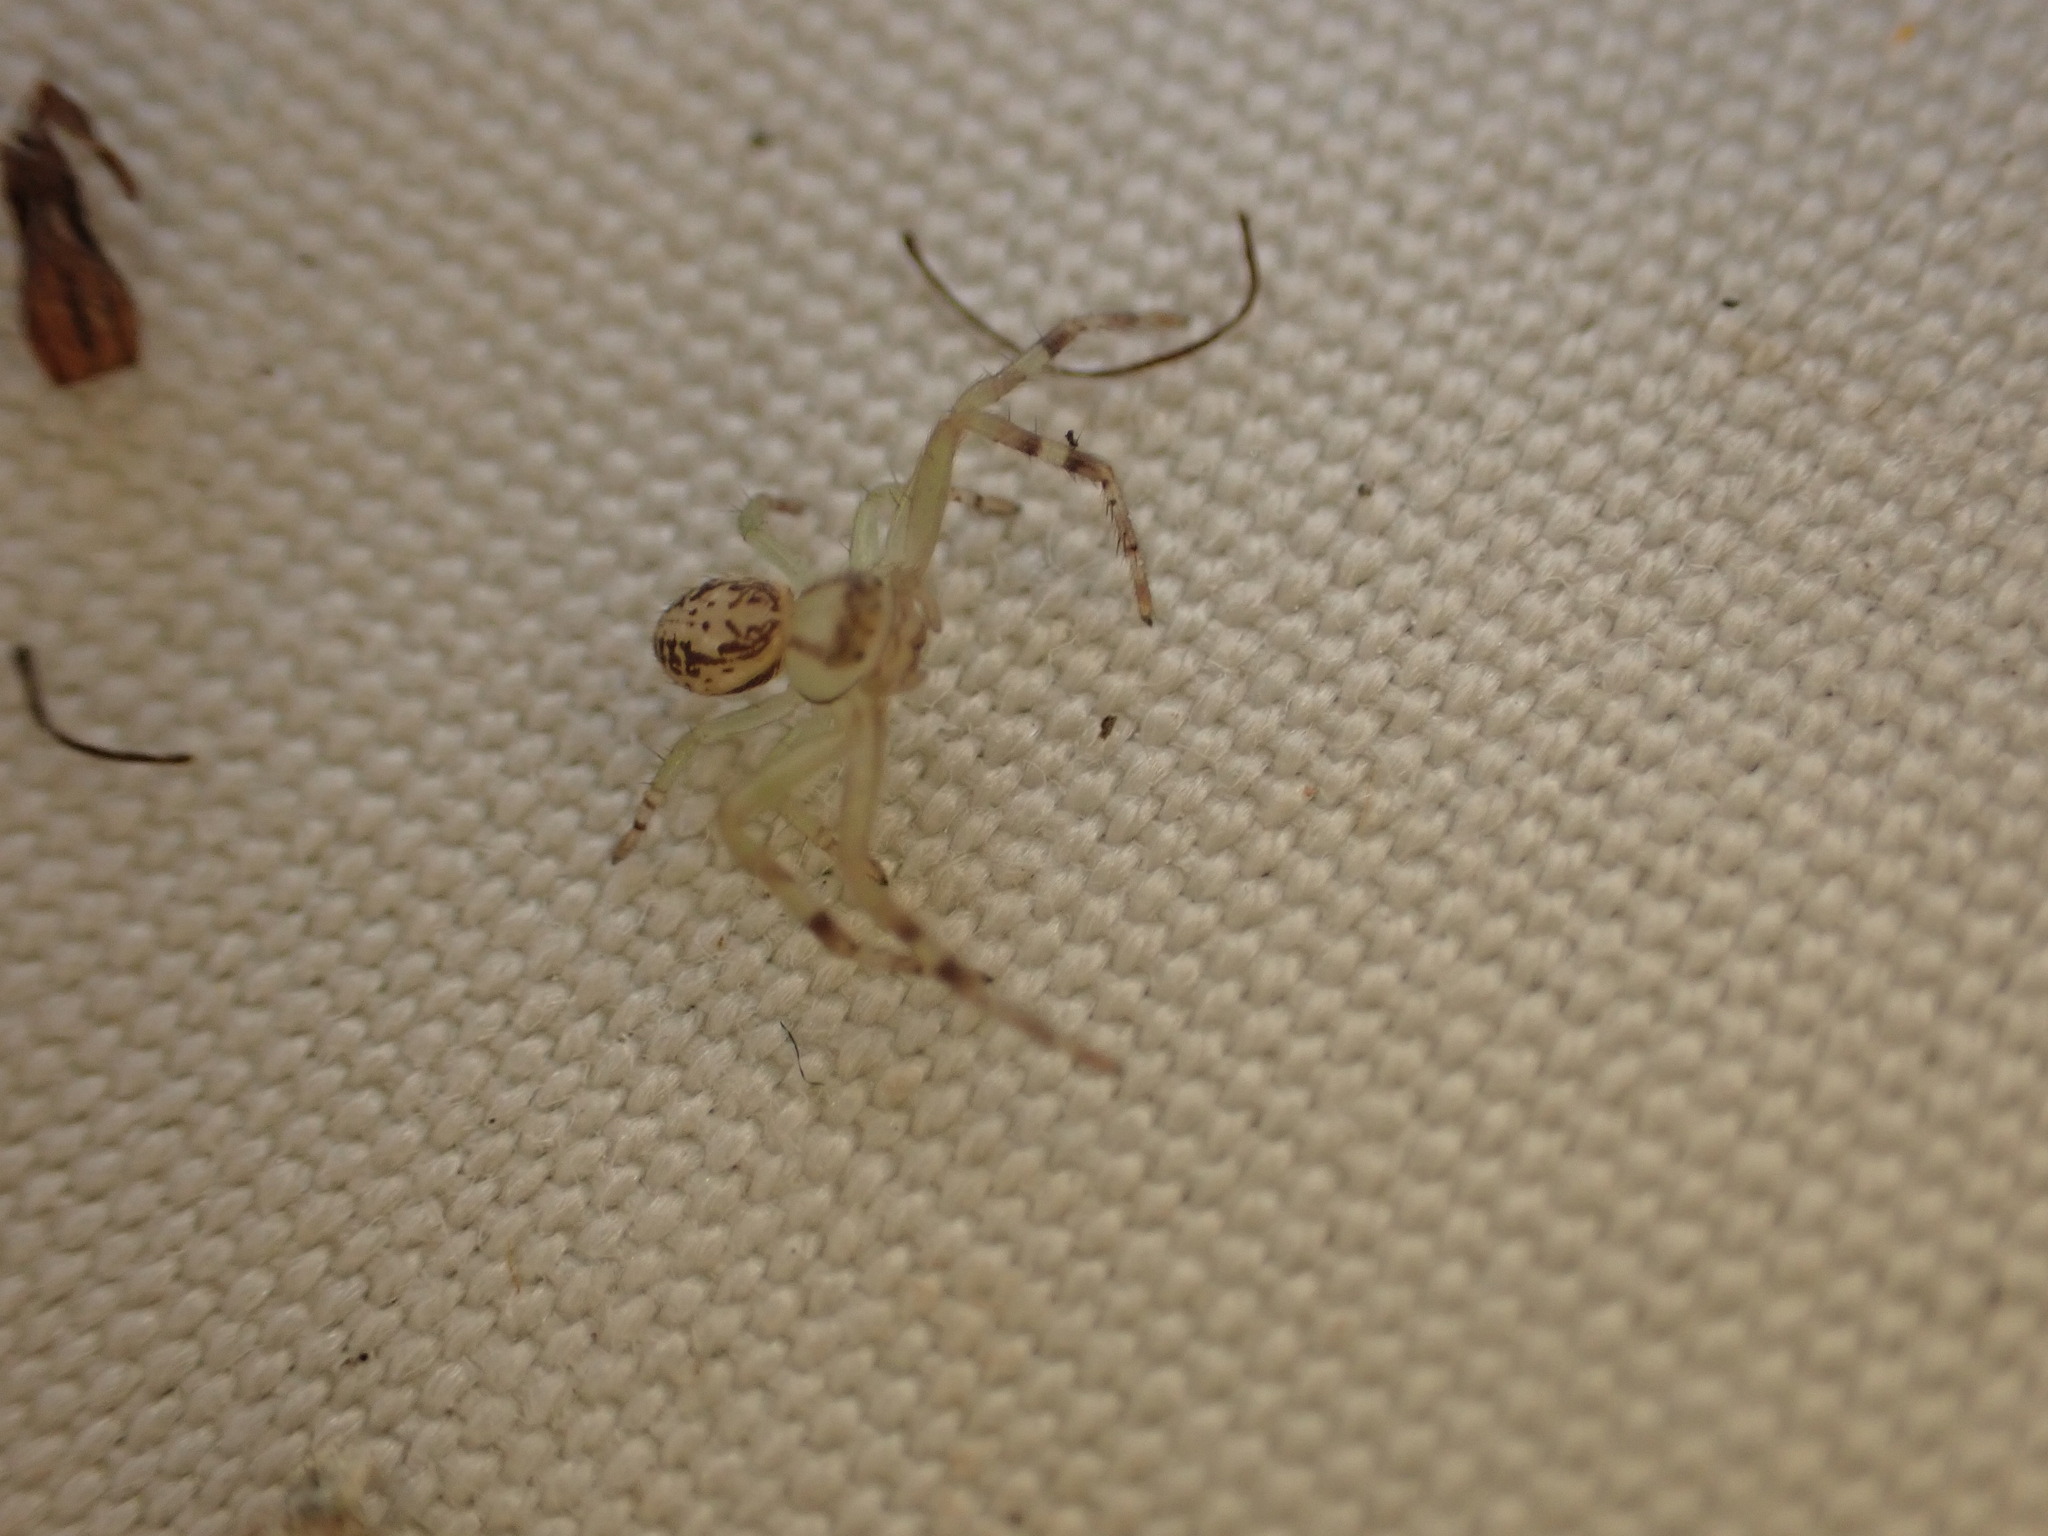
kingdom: Animalia
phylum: Arthropoda
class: Arachnida
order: Araneae
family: Thomisidae
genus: Diaea
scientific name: Diaea ambara
